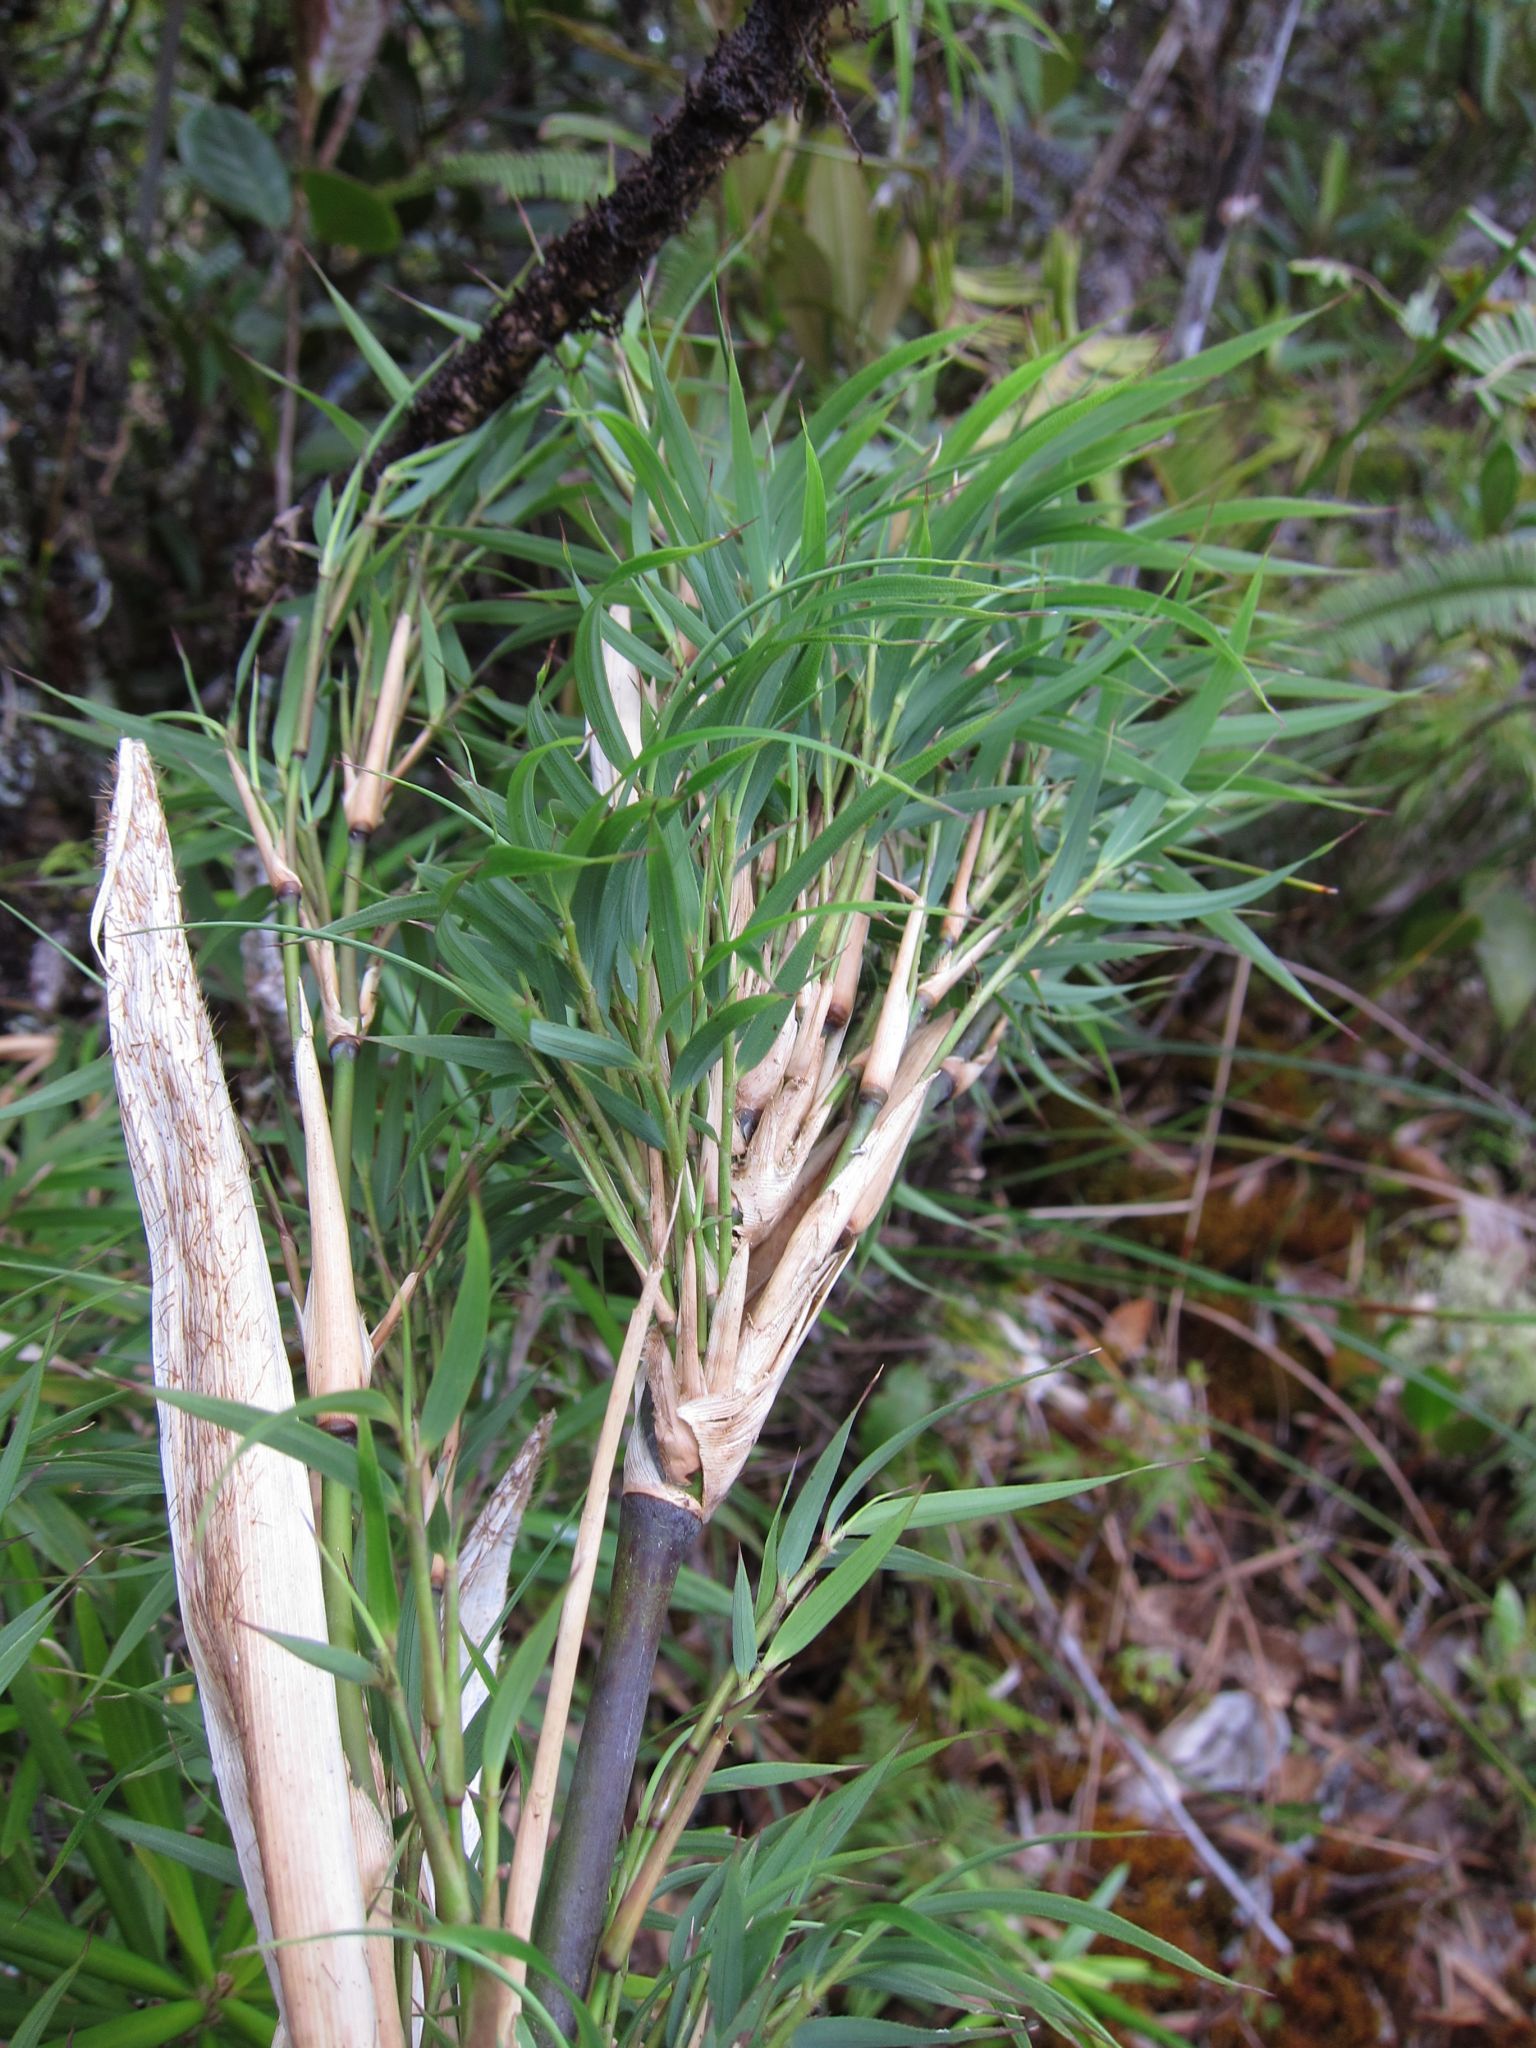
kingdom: Plantae
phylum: Tracheophyta
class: Liliopsida
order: Poales
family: Poaceae
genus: Oldeania
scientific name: Oldeania marojejyensis
